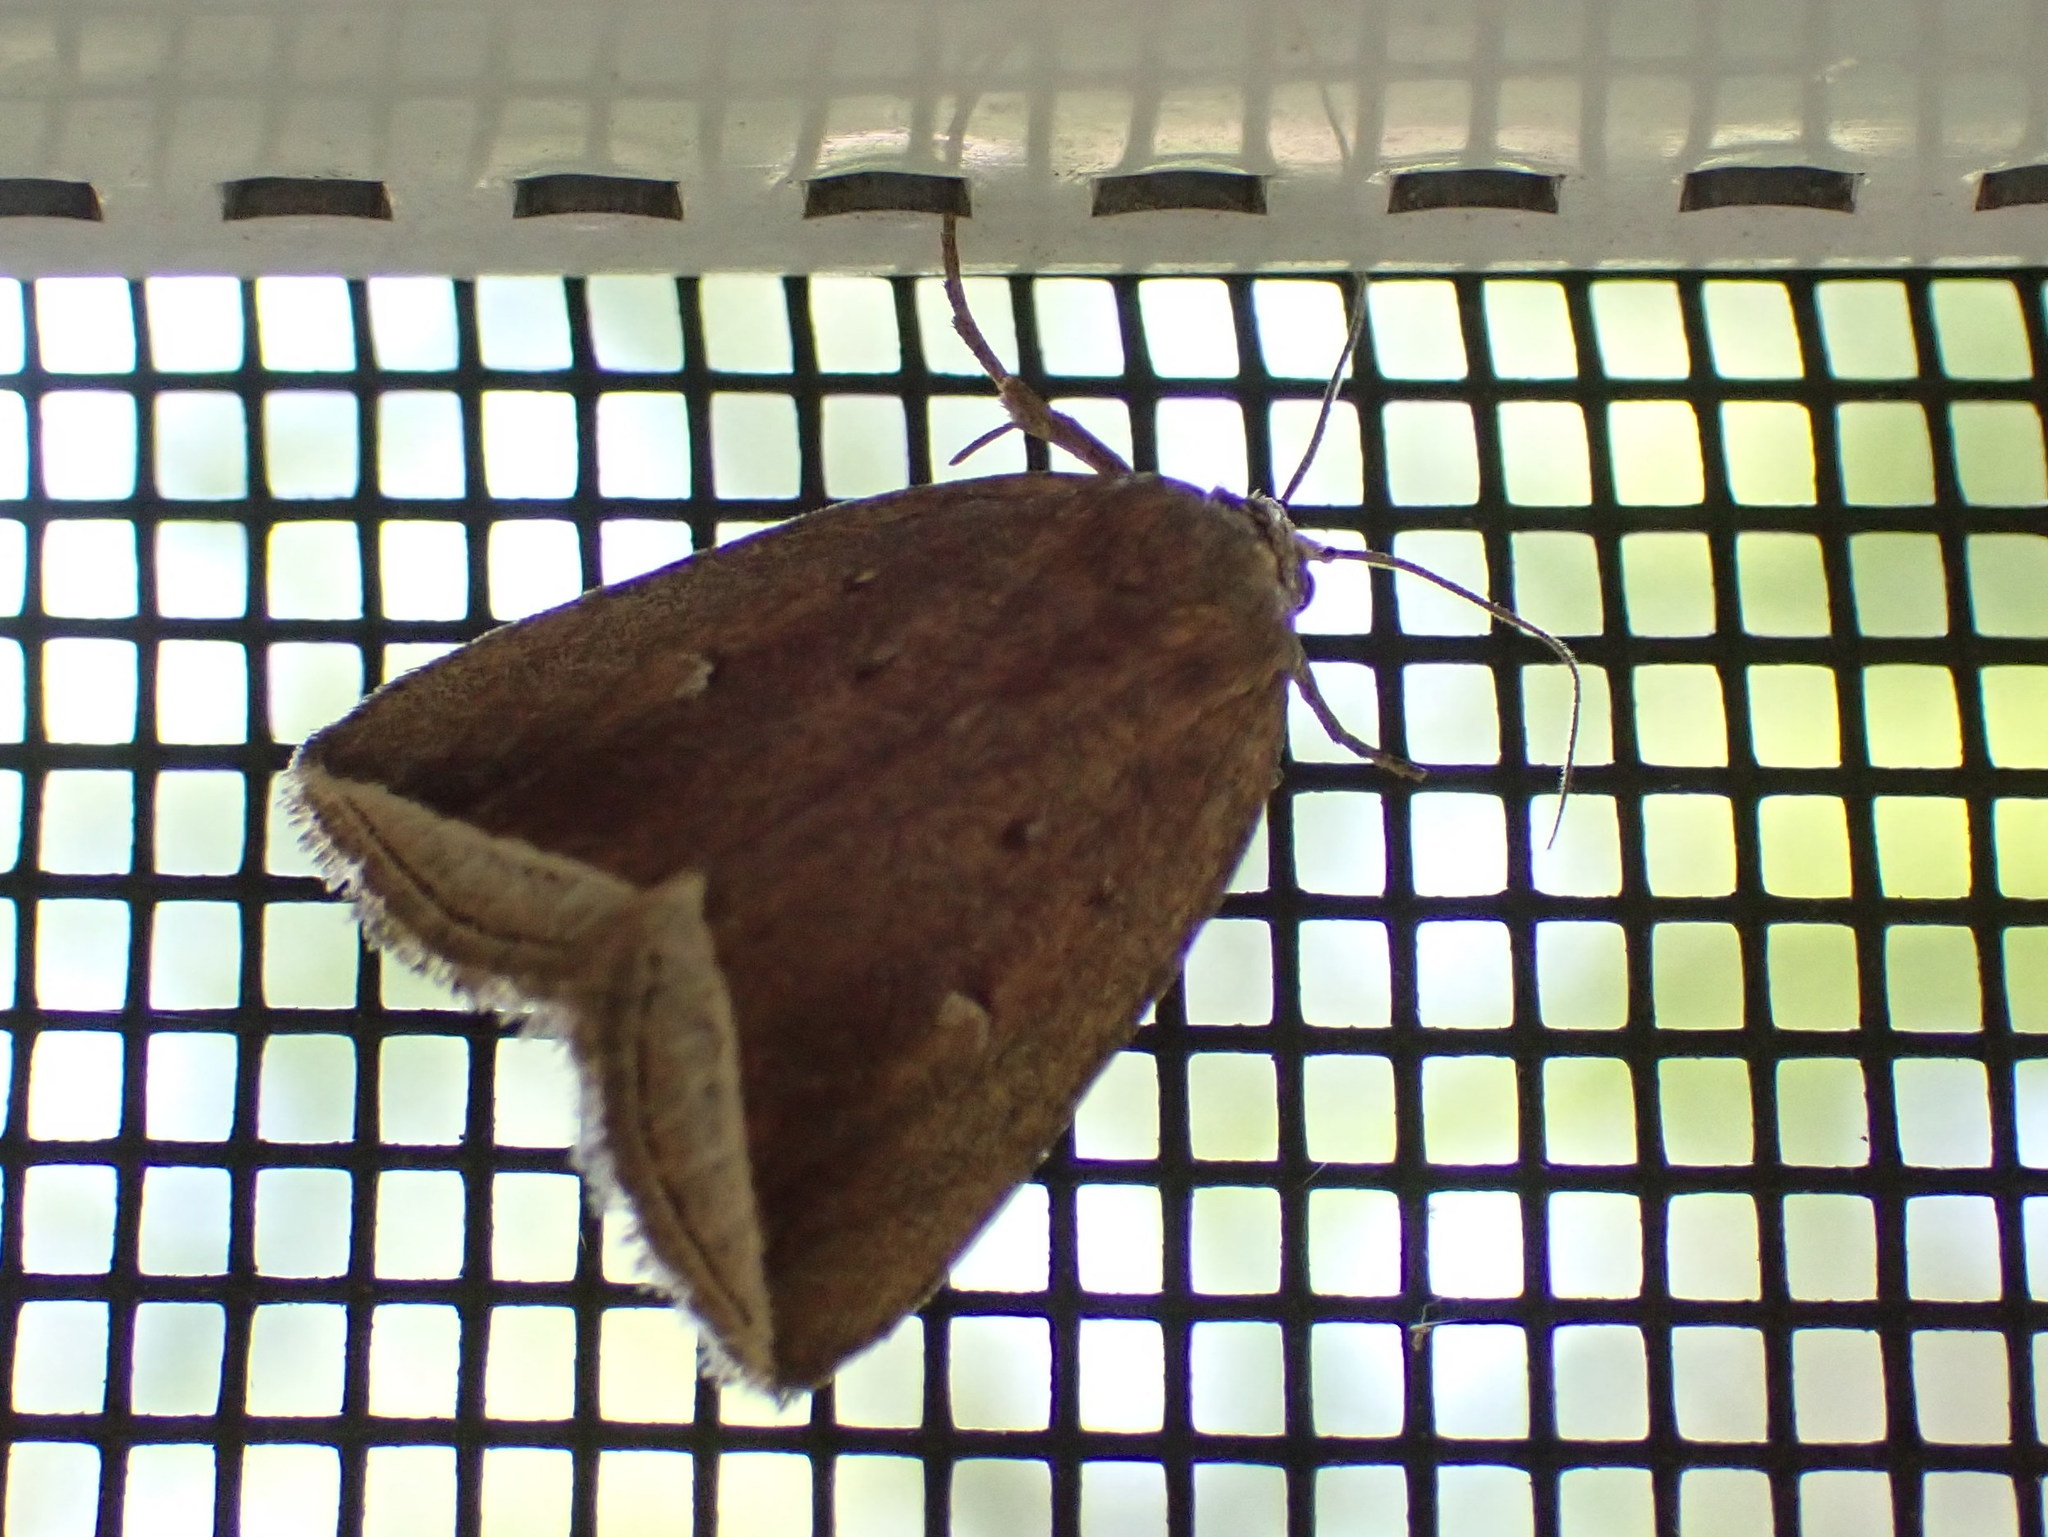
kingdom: Animalia
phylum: Arthropoda
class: Insecta
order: Lepidoptera
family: Erebidae
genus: Capis
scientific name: Capis curvata
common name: Curved halter moth
